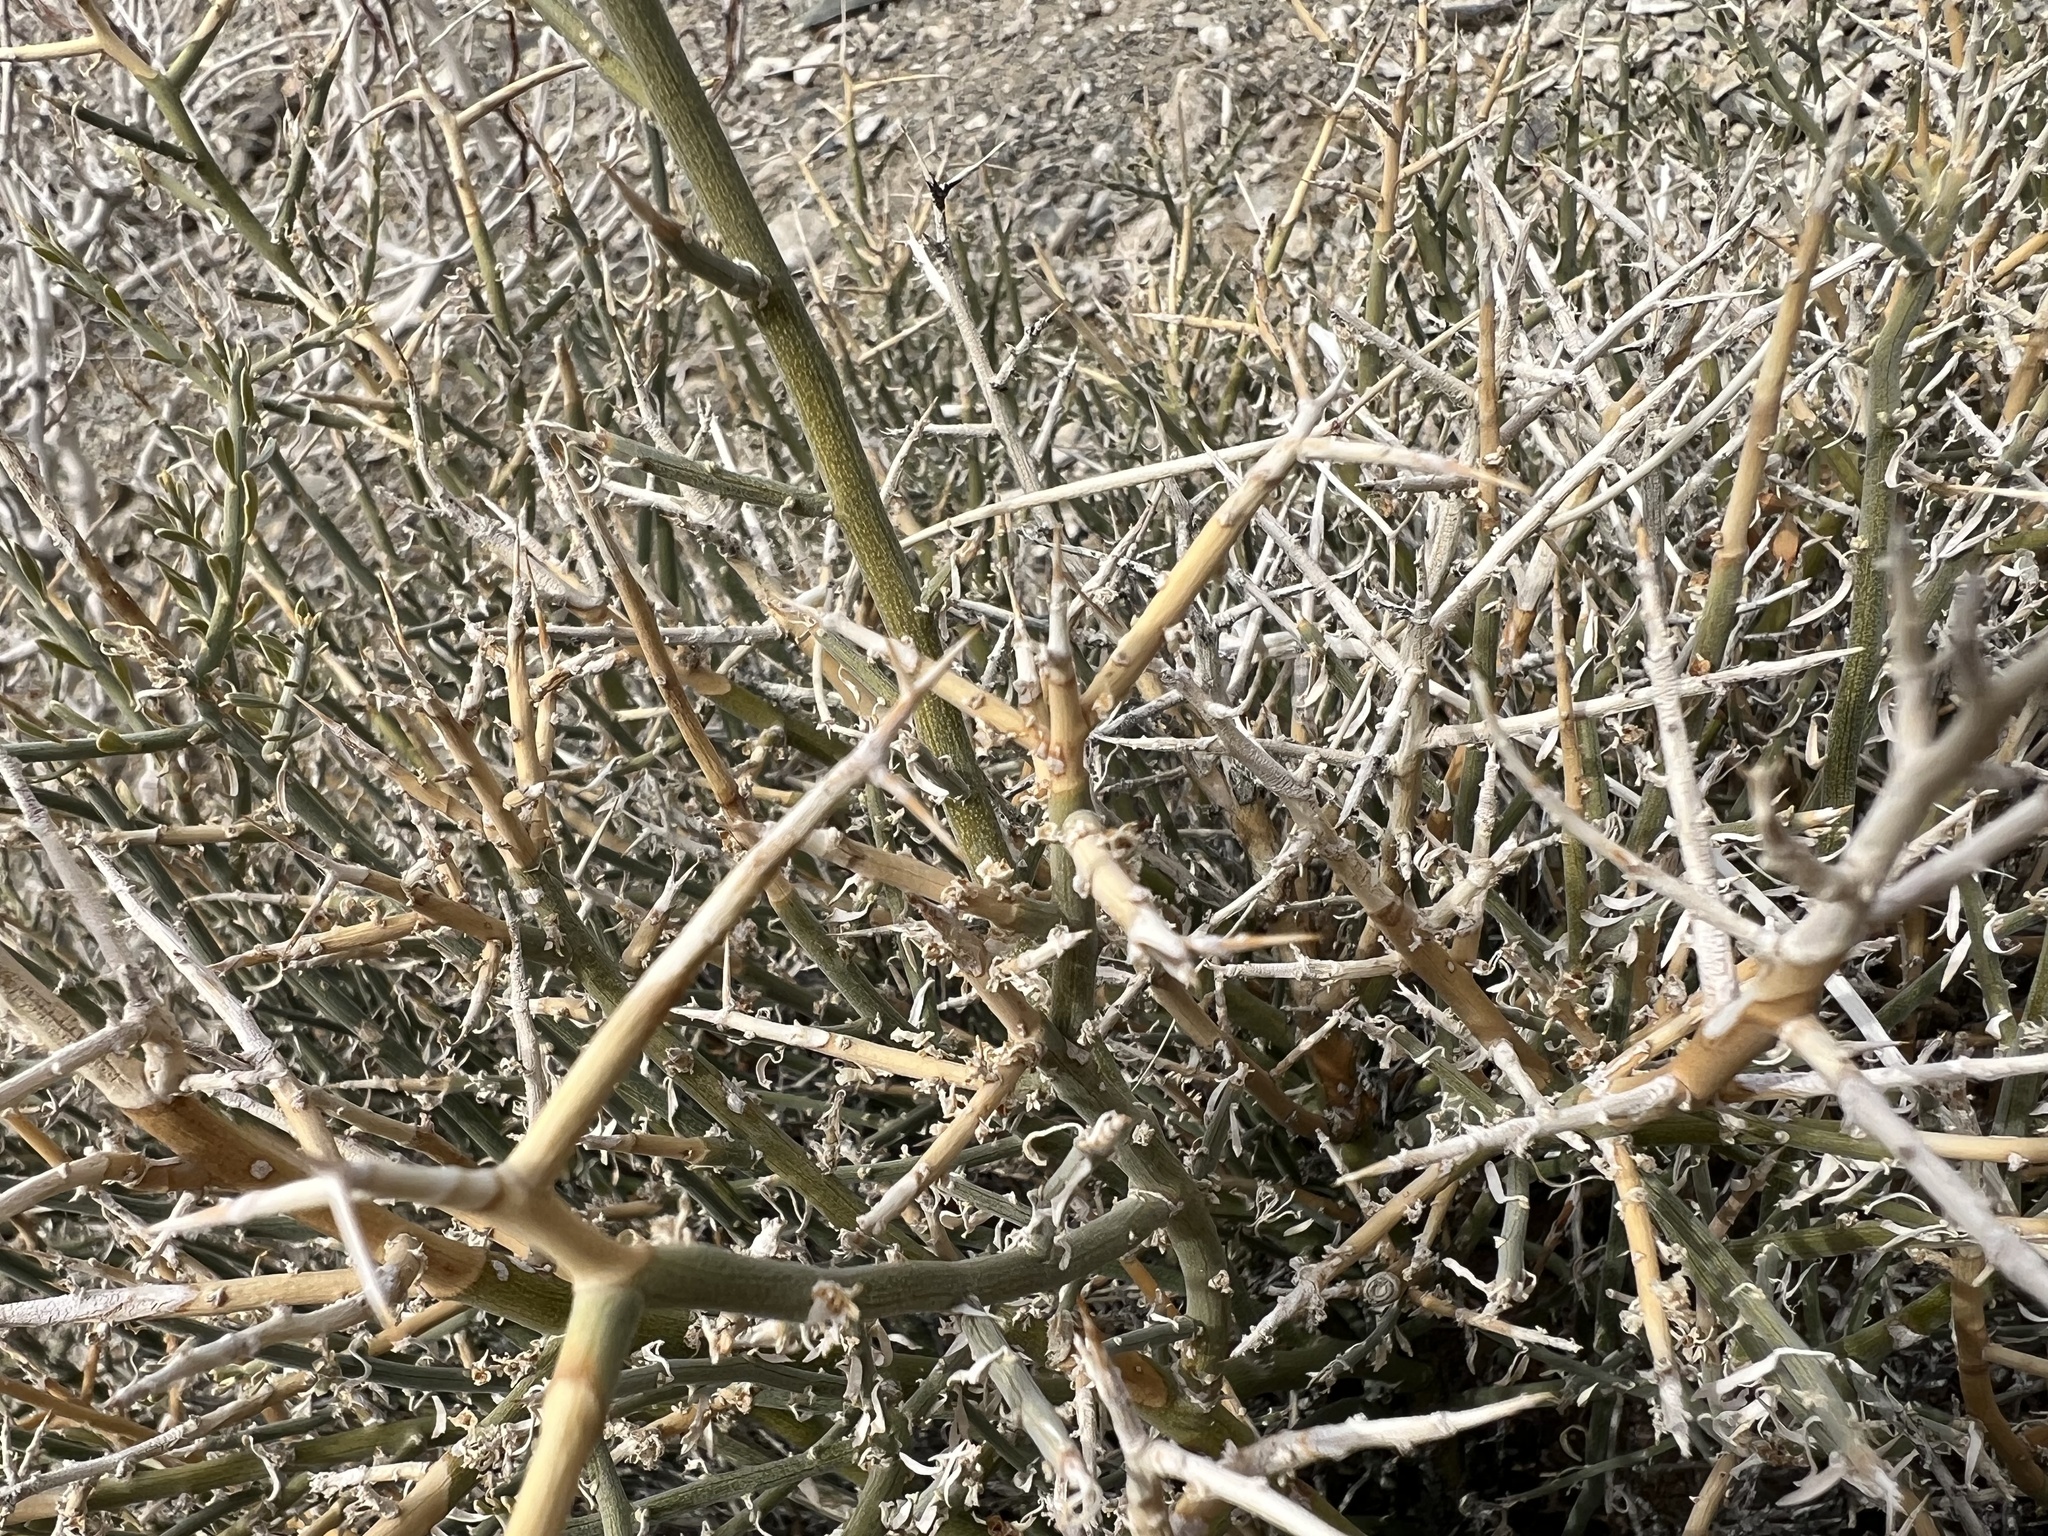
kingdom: Plantae
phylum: Tracheophyta
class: Magnoliopsida
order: Lamiales
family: Oleaceae
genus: Menodora
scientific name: Menodora spinescens
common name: Spiny menodora
